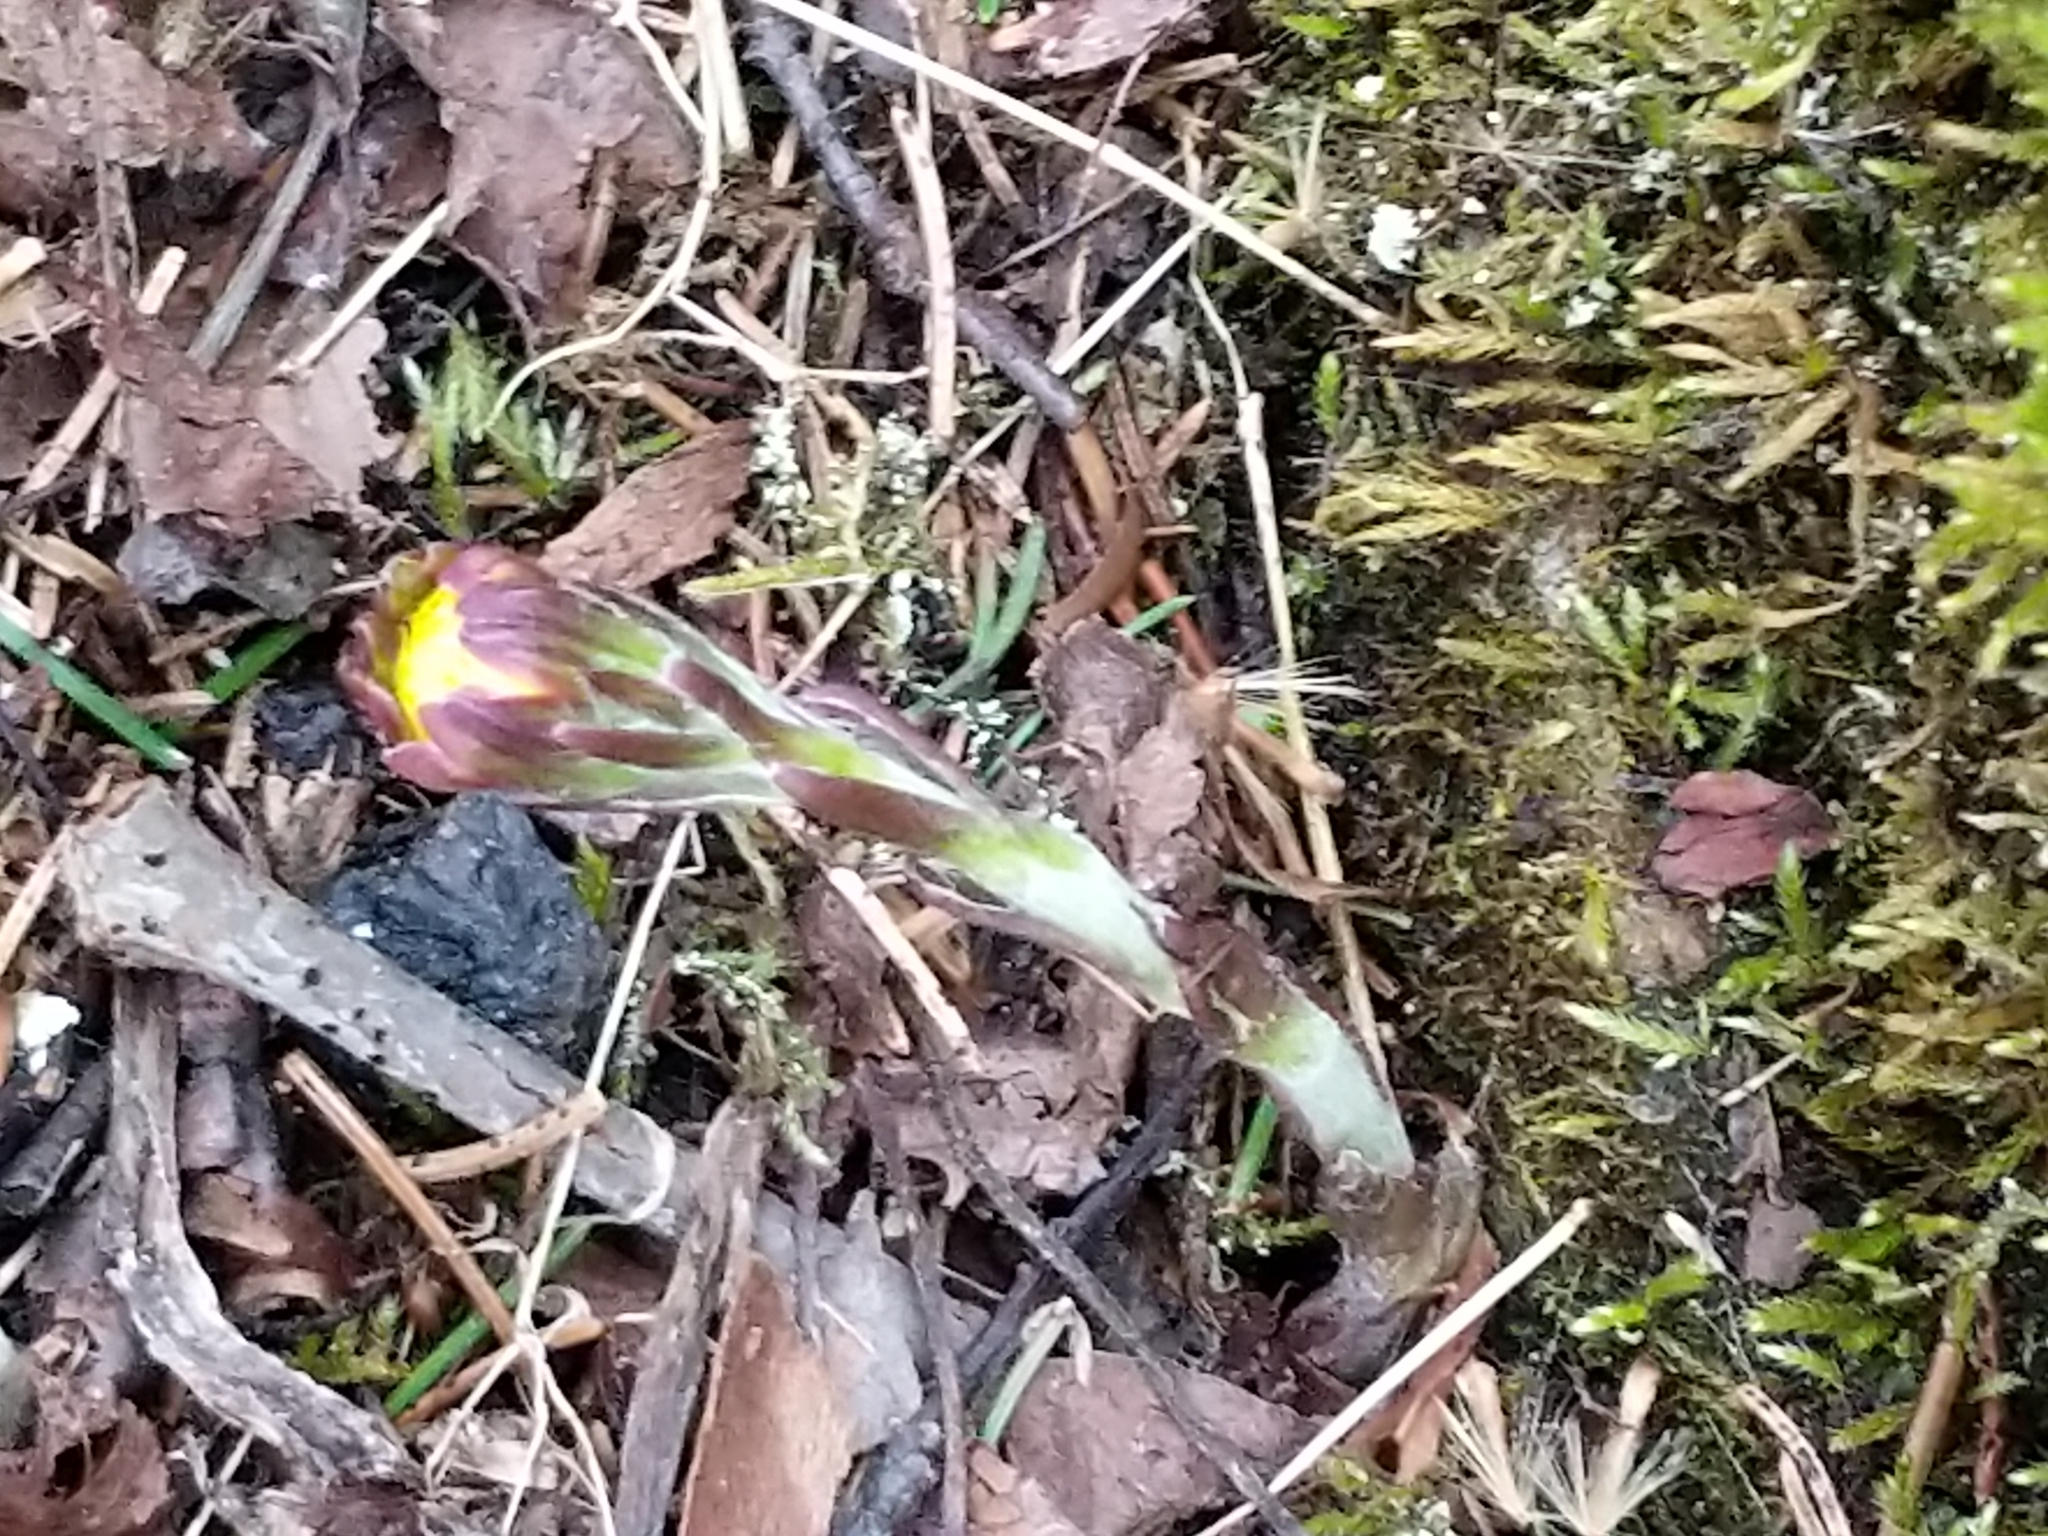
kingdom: Plantae
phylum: Tracheophyta
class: Magnoliopsida
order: Asterales
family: Asteraceae
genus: Tussilago
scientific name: Tussilago farfara
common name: Coltsfoot
